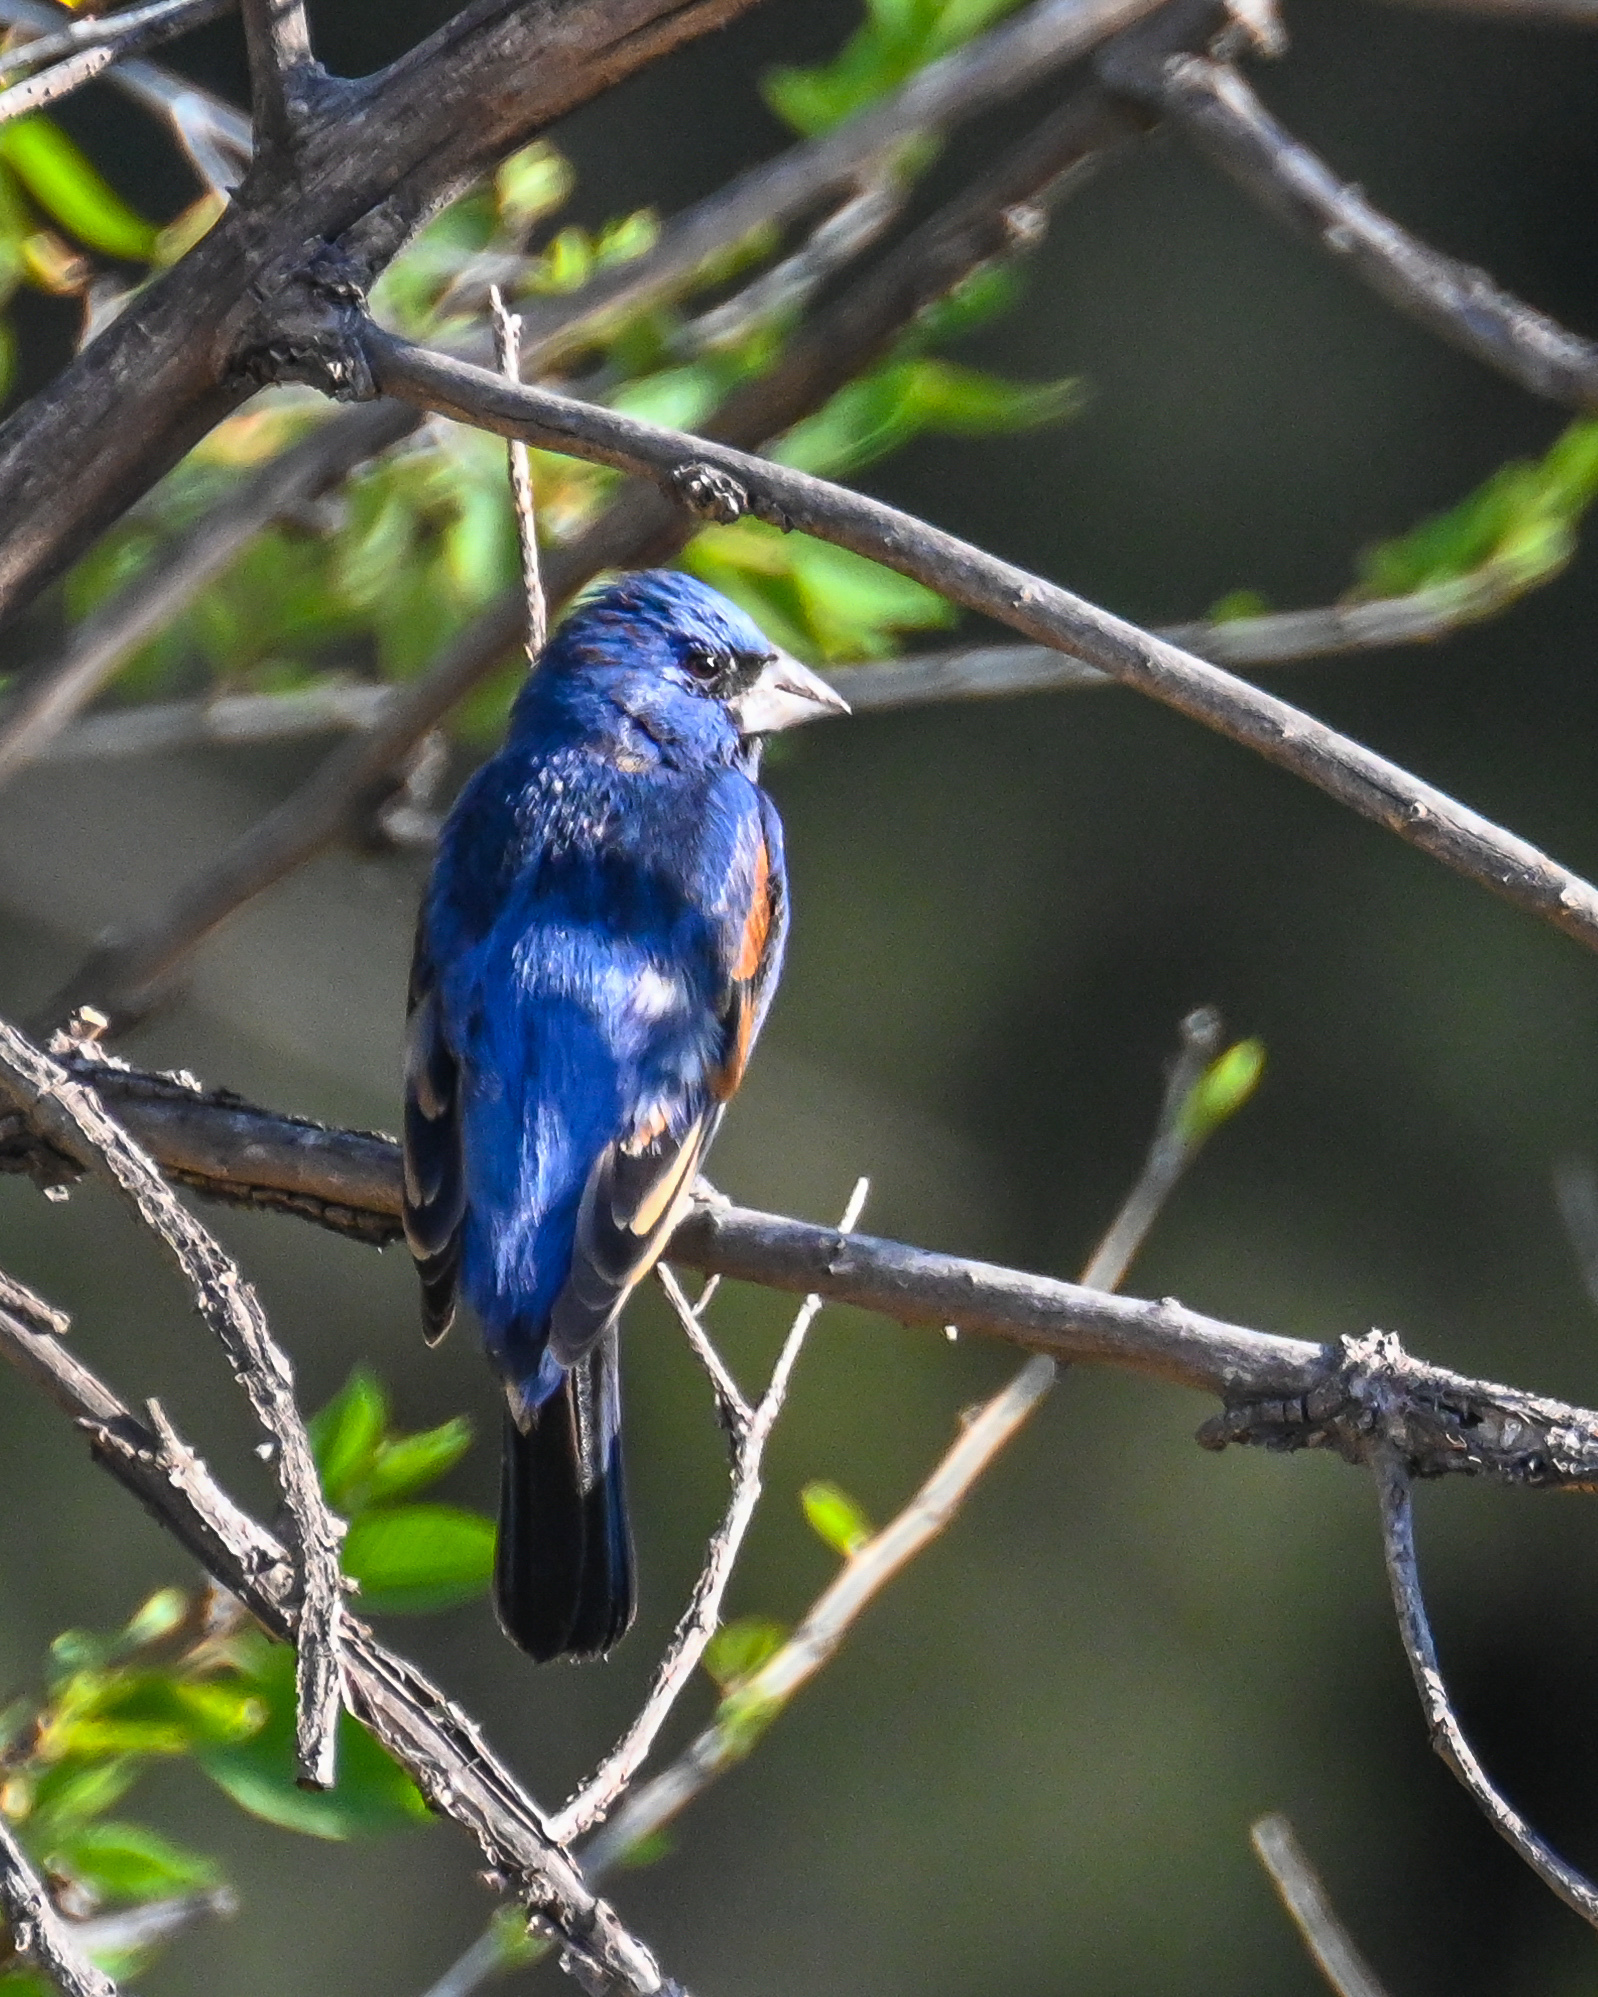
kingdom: Animalia
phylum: Chordata
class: Aves
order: Passeriformes
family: Cardinalidae
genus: Passerina
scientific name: Passerina caerulea
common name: Blue grosbeak
